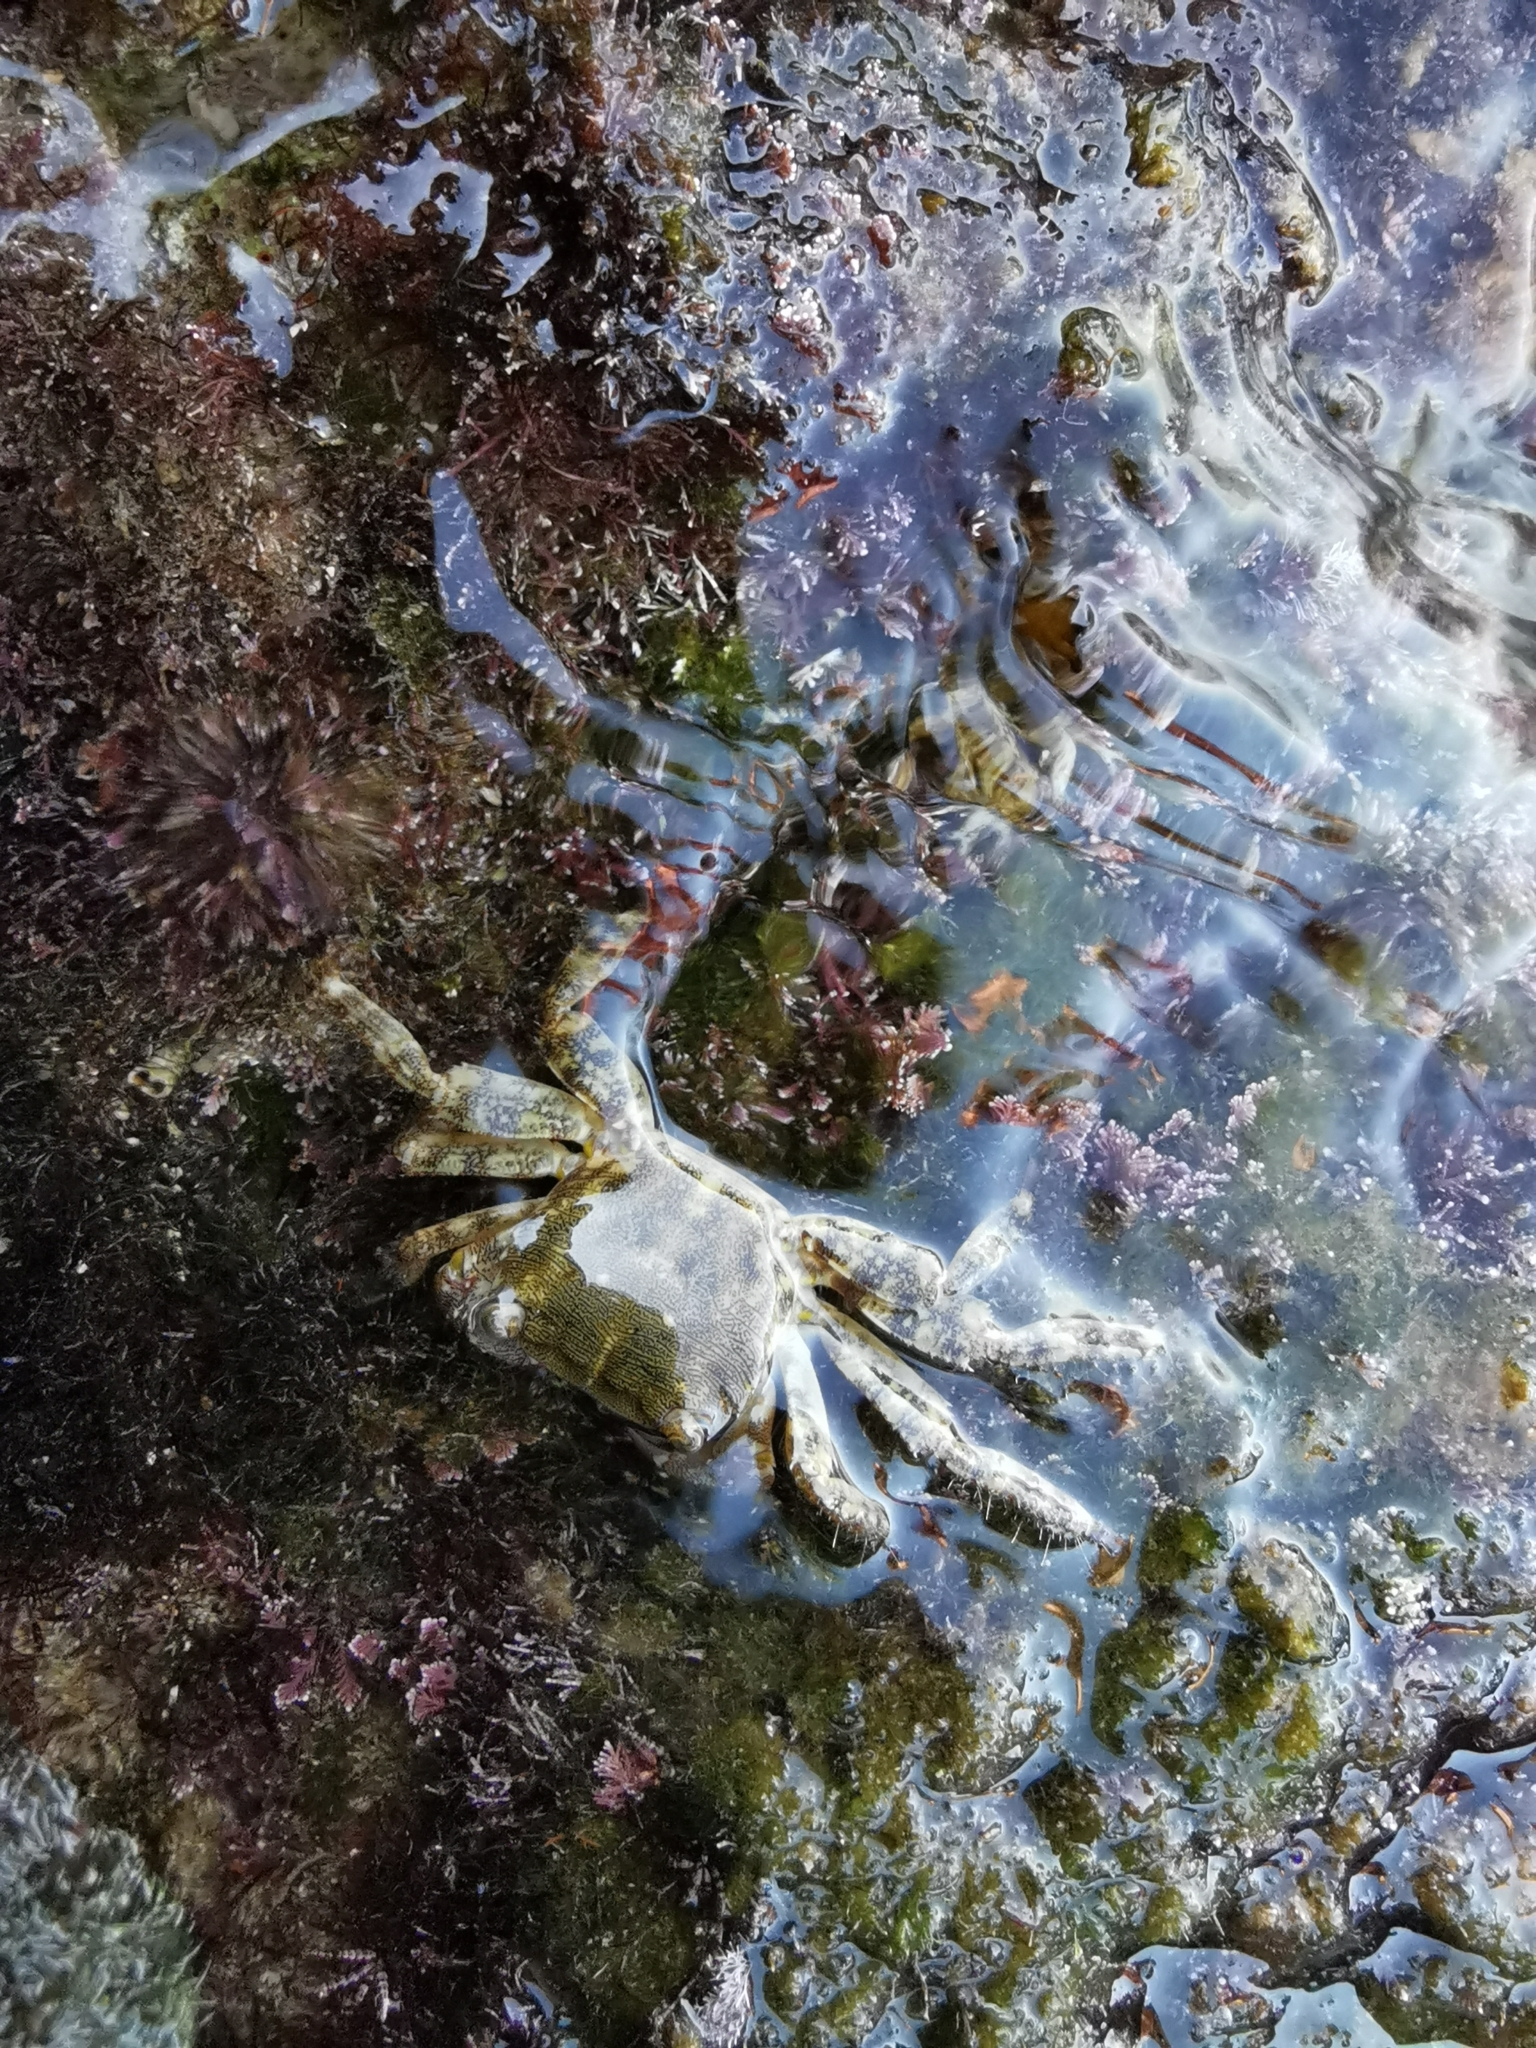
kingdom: Animalia
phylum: Arthropoda
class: Malacostraca
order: Decapoda
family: Grapsidae
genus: Pachygrapsus
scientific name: Pachygrapsus marmoratus
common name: Marbled rock crab
